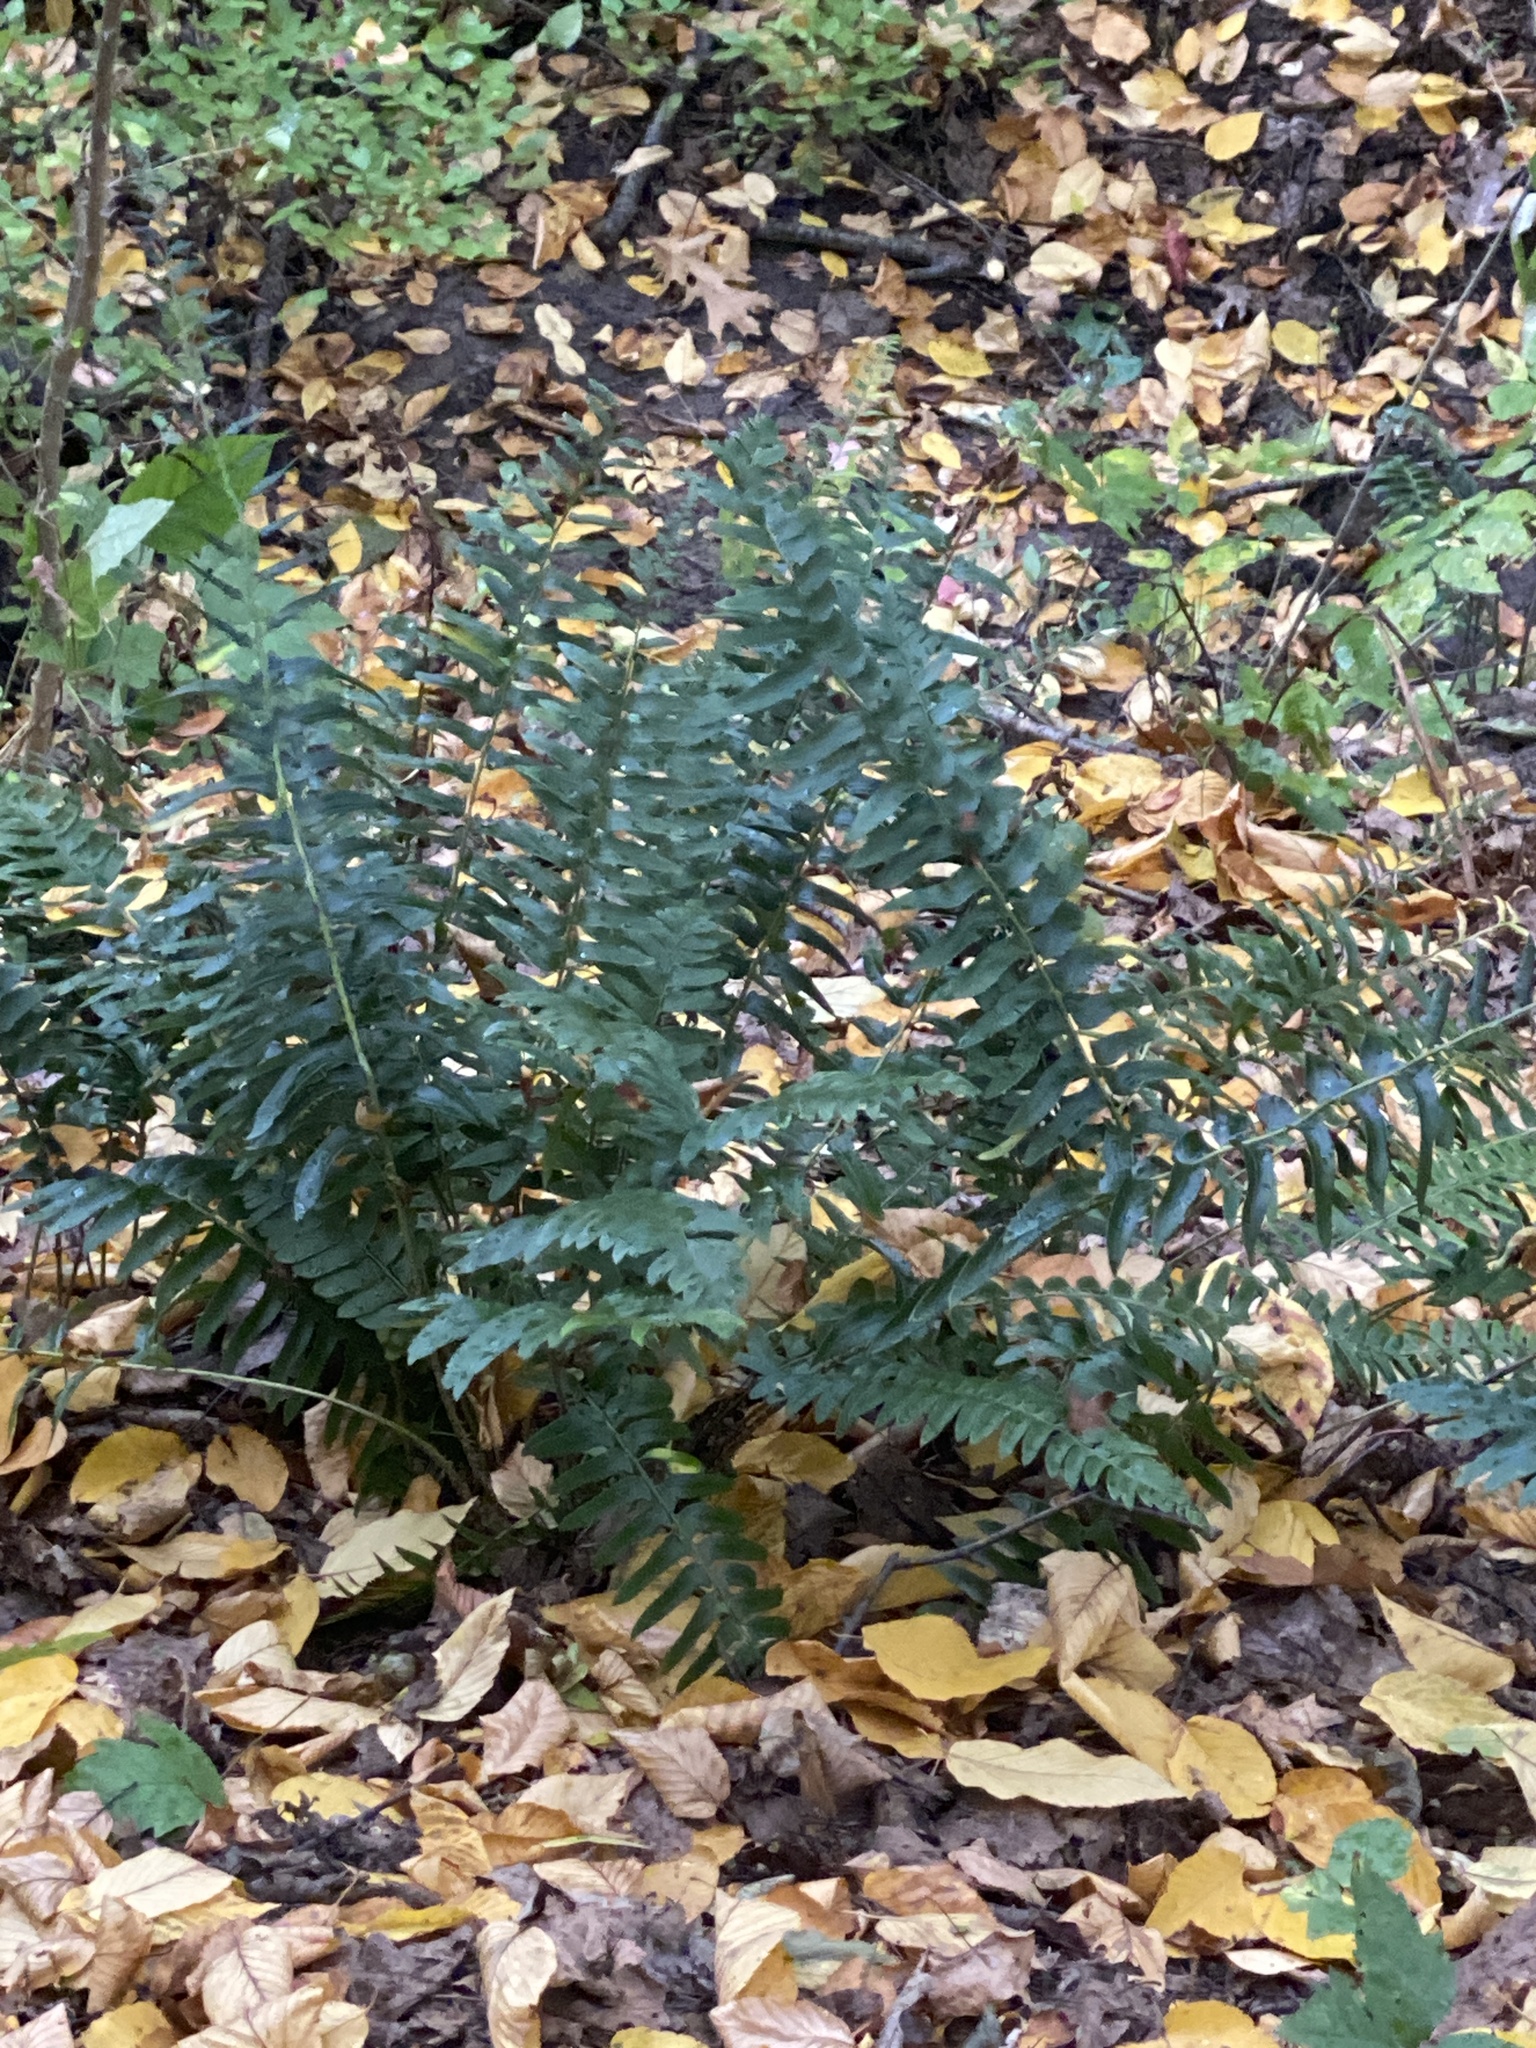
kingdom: Plantae
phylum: Tracheophyta
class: Polypodiopsida
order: Polypodiales
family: Dryopteridaceae
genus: Polystichum
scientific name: Polystichum acrostichoides
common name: Christmas fern
